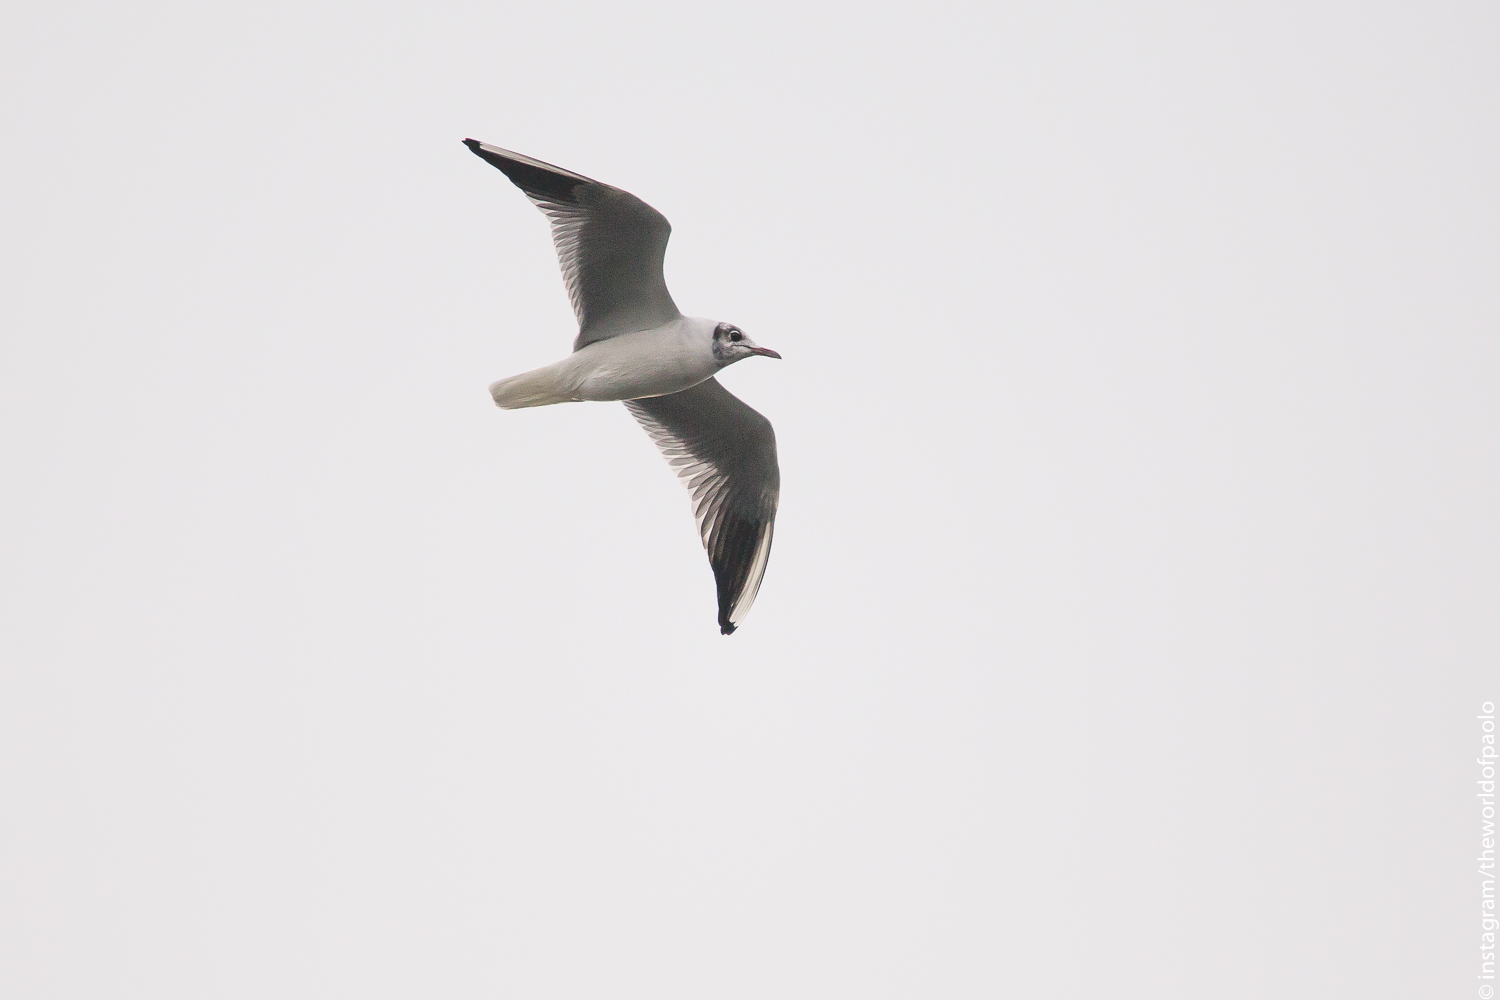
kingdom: Animalia
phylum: Chordata
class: Aves
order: Charadriiformes
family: Laridae
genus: Chroicocephalus
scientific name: Chroicocephalus ridibundus
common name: Black-headed gull
